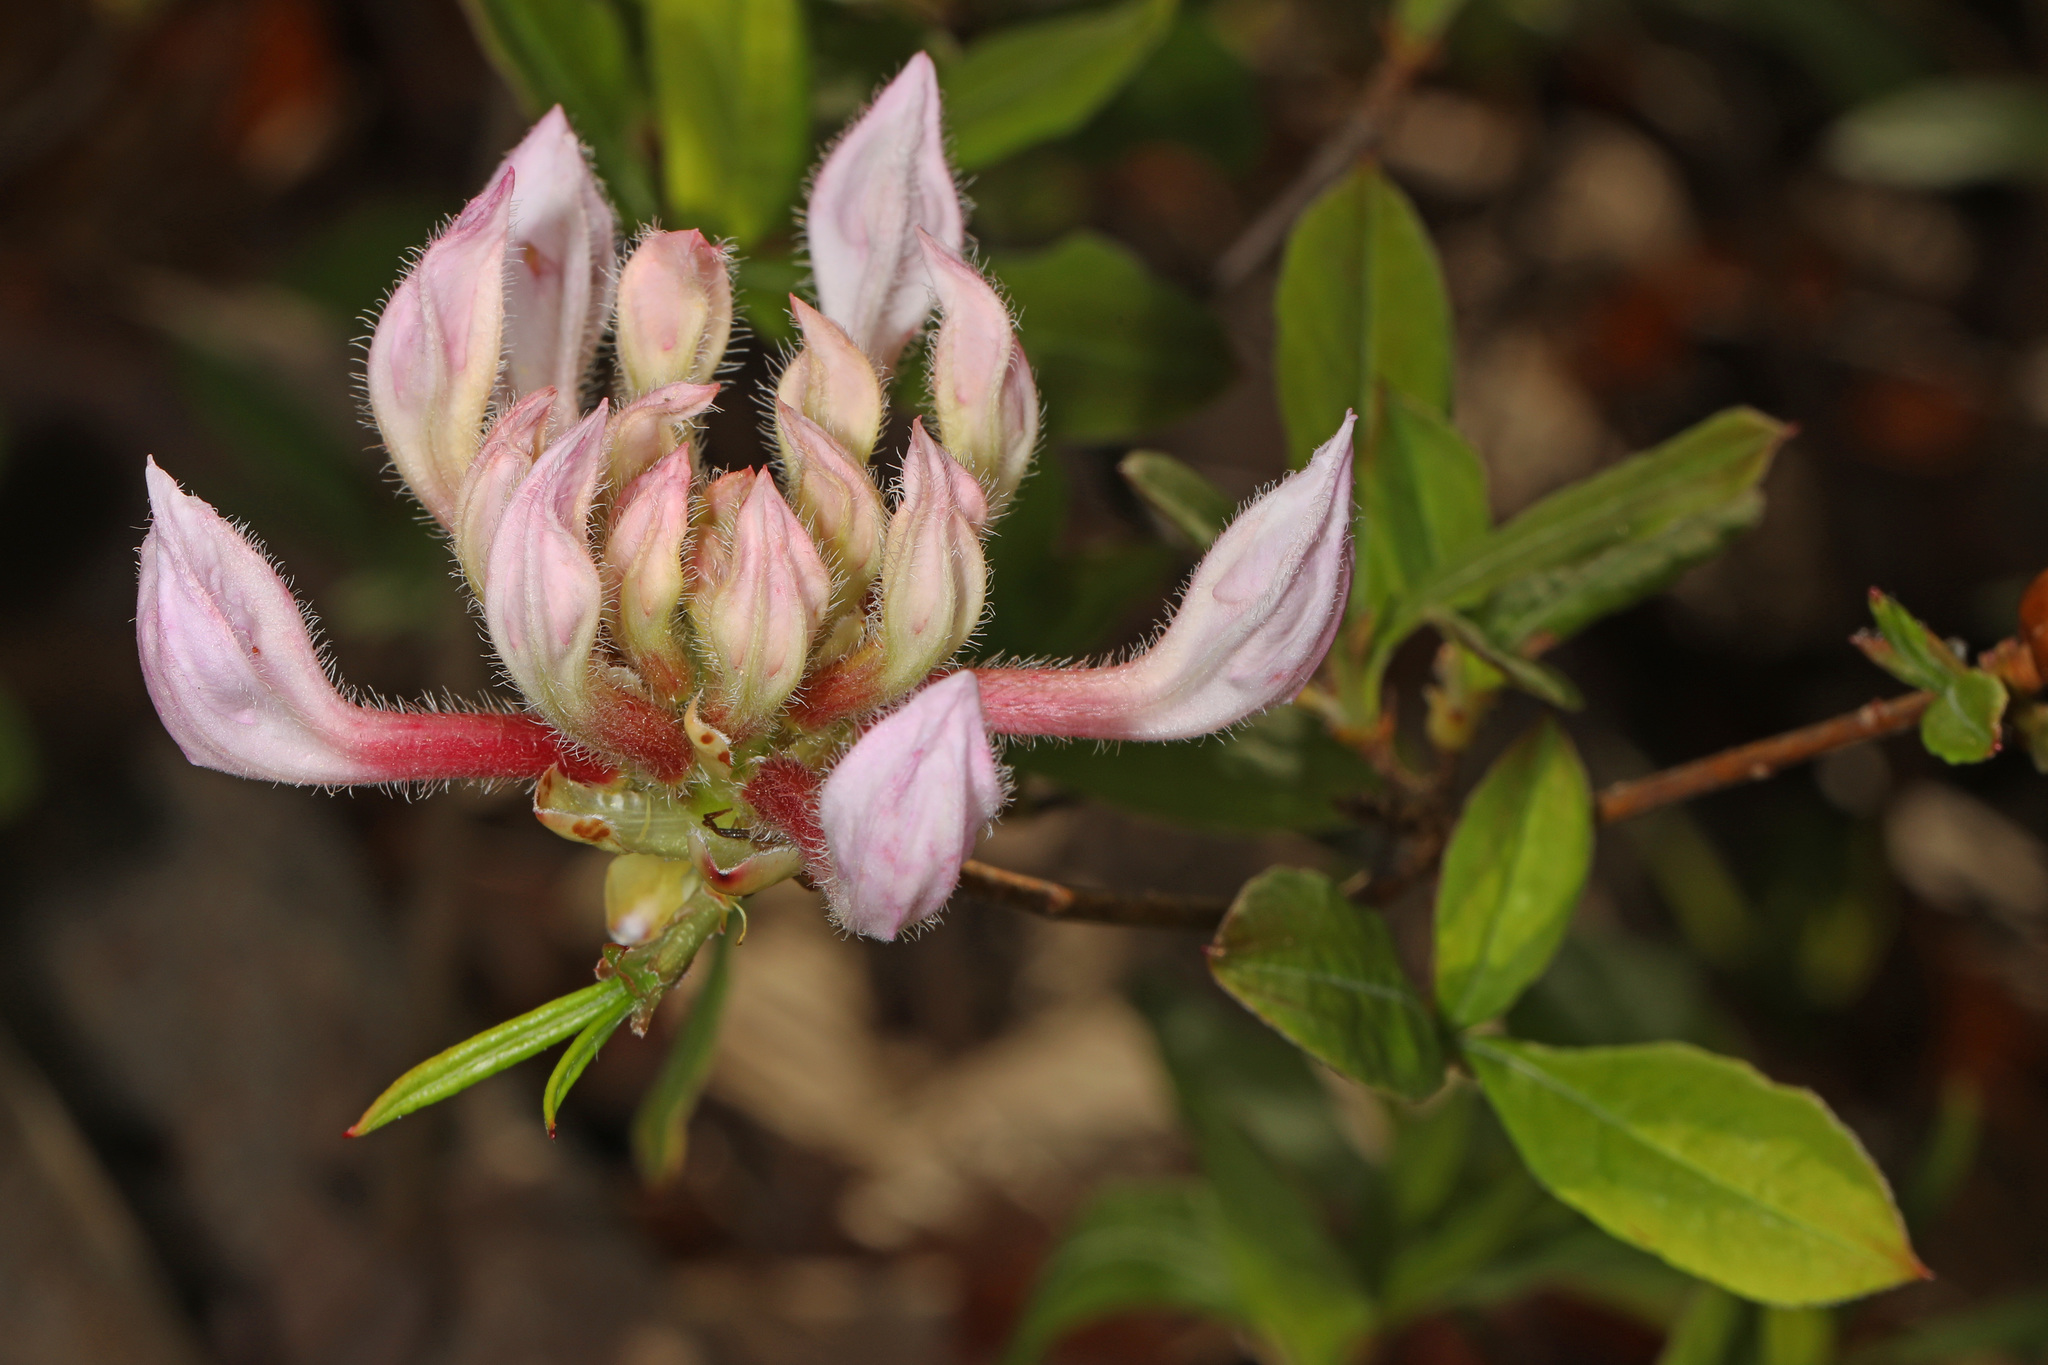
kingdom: Plantae
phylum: Tracheophyta
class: Magnoliopsida
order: Ericales
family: Ericaceae
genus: Rhododendron
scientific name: Rhododendron periclymenoides
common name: Election-pink
